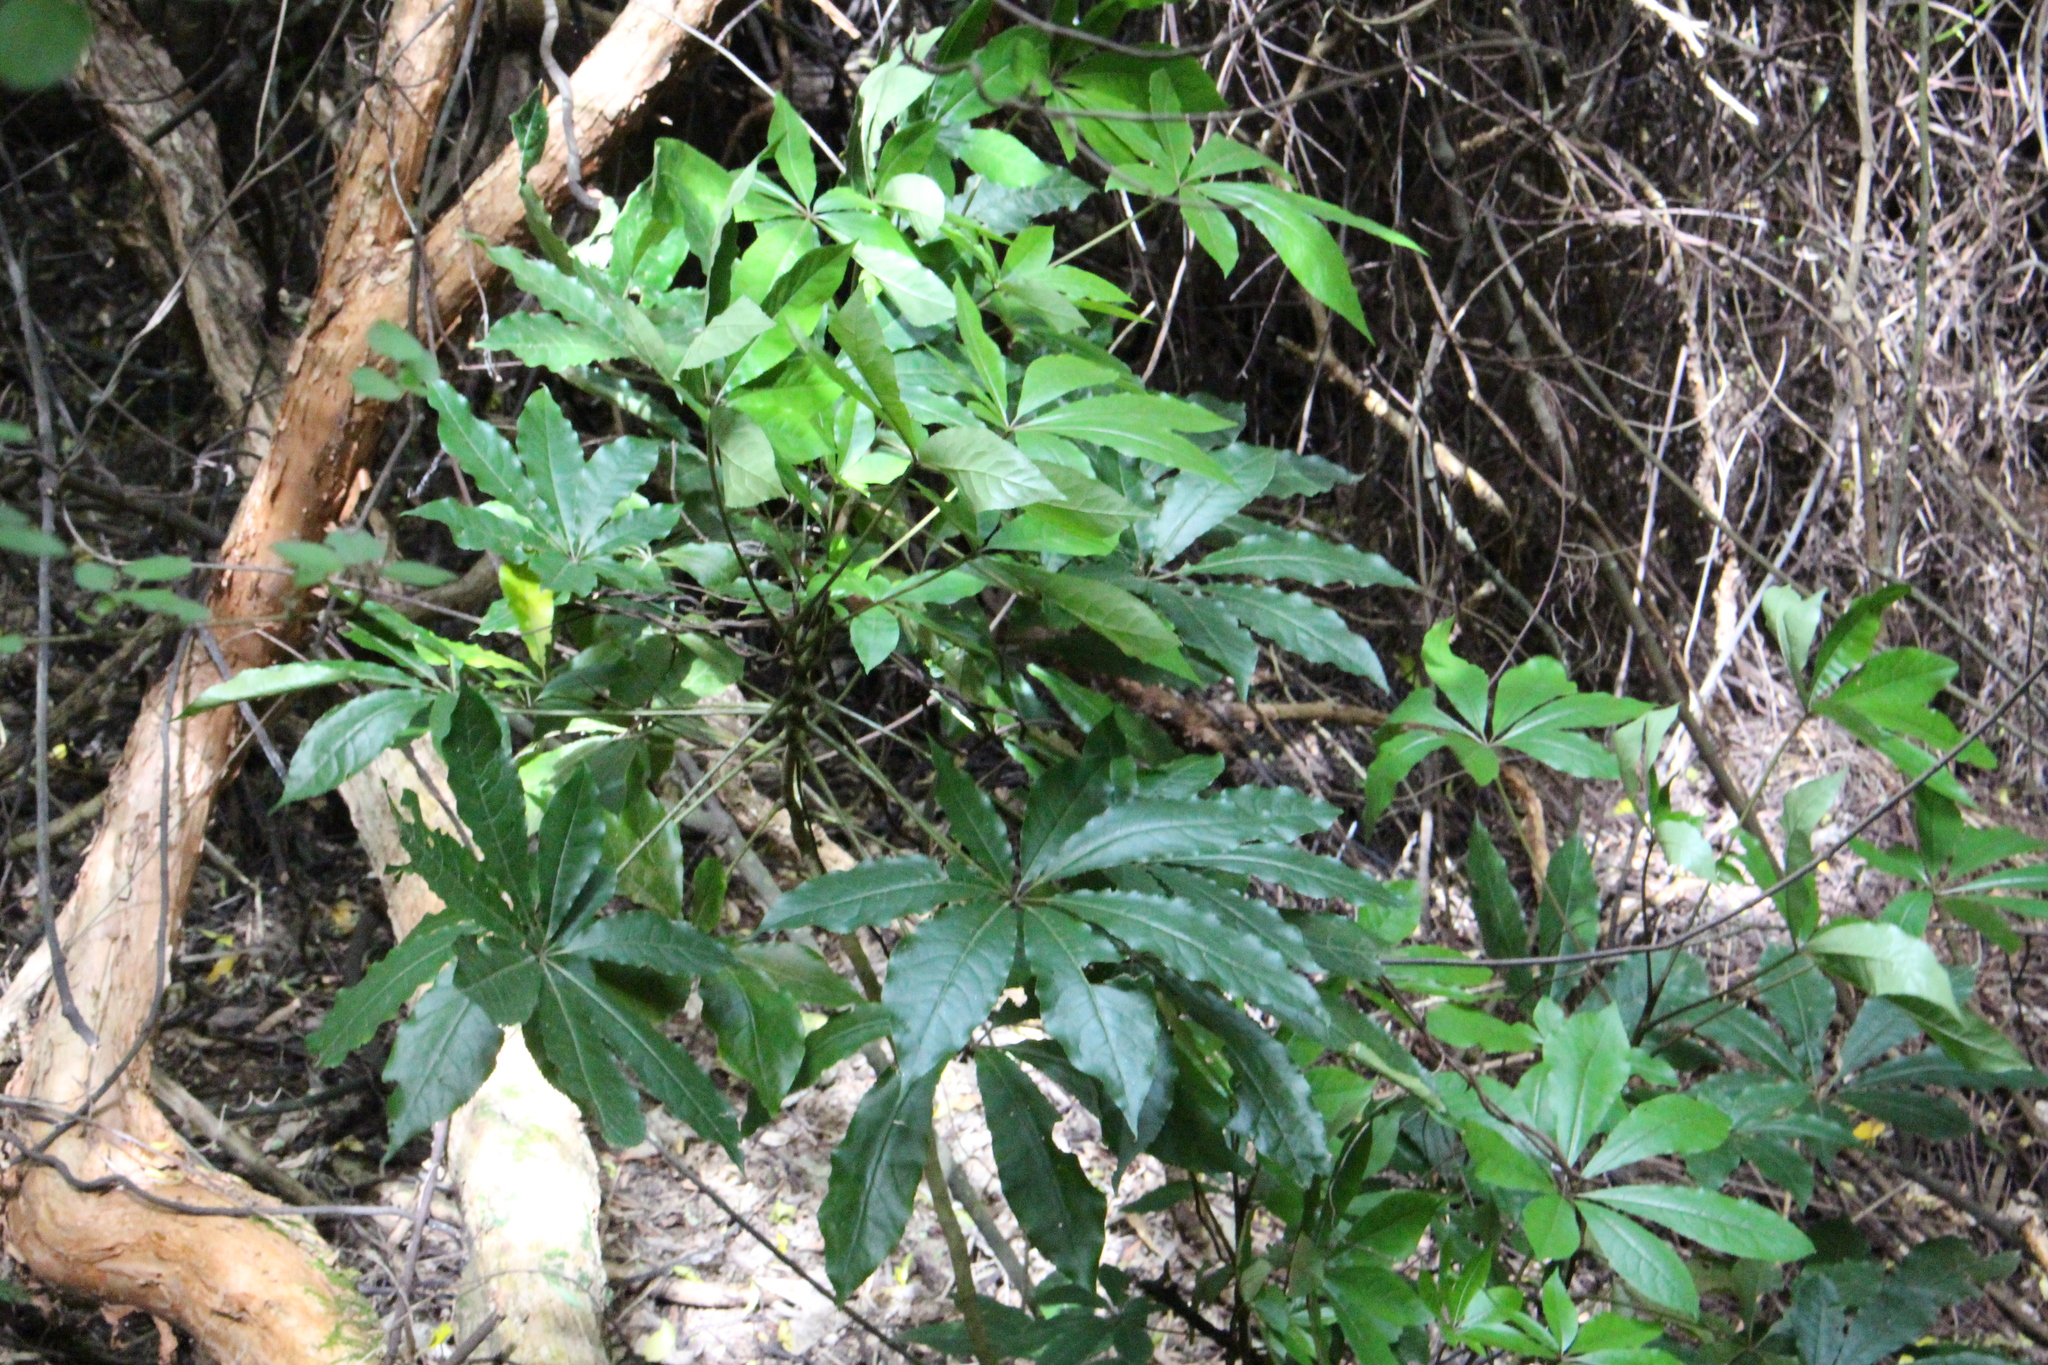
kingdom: Plantae
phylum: Tracheophyta
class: Magnoliopsida
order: Apiales
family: Araliaceae
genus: Schefflera
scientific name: Schefflera digitata
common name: Pate
